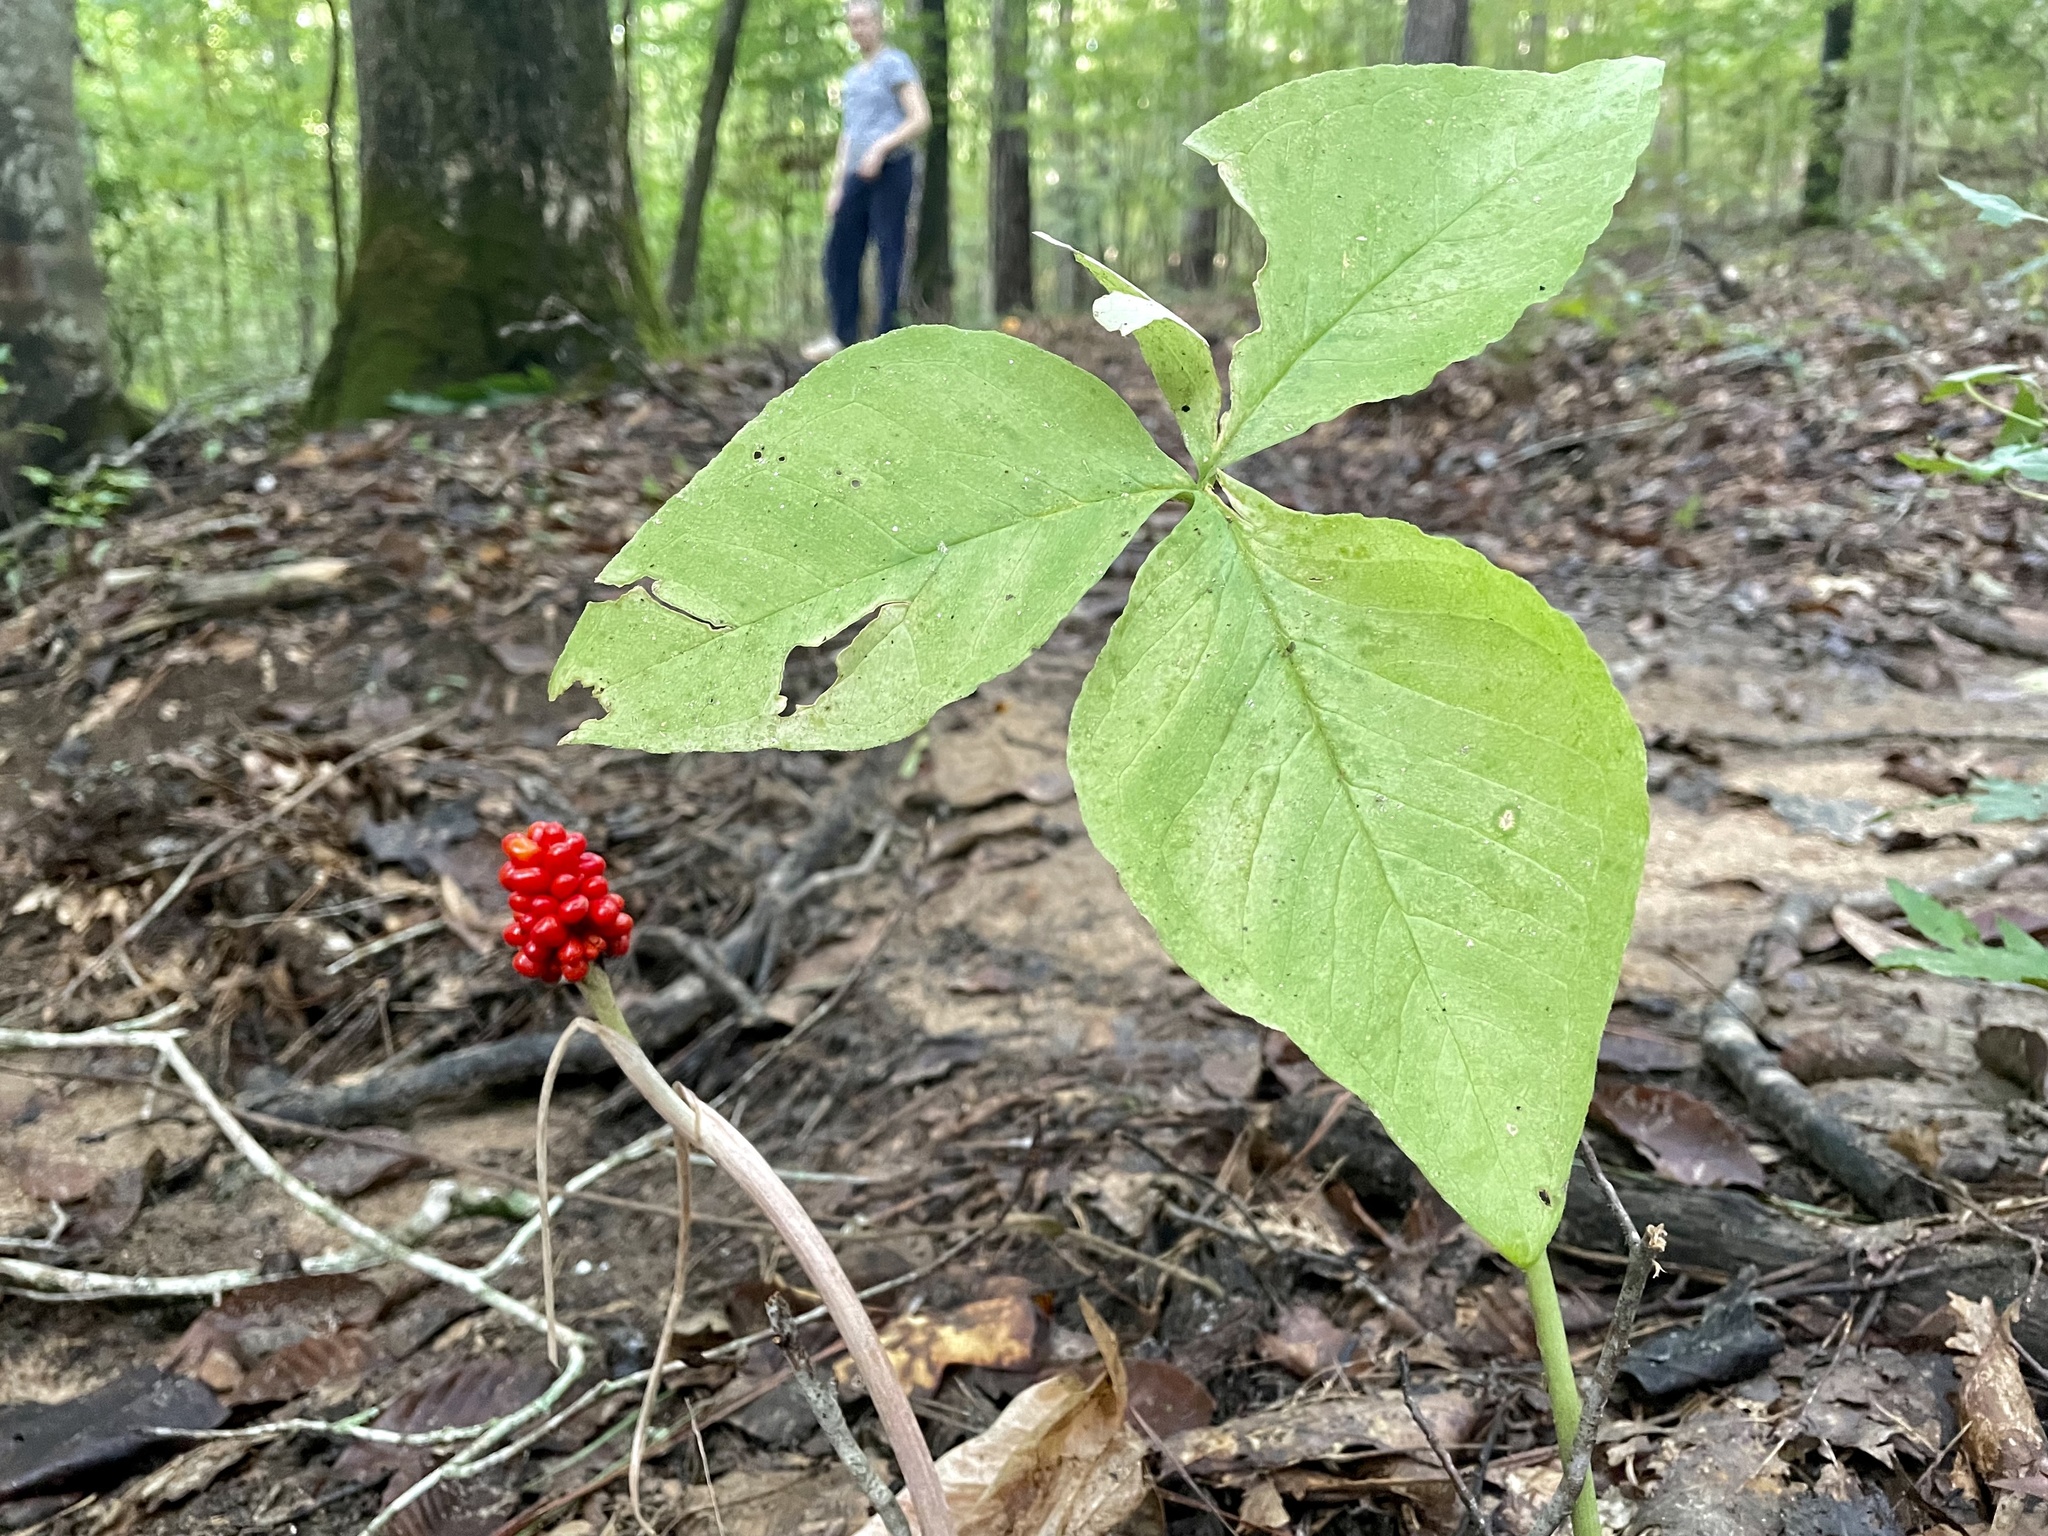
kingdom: Plantae
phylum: Tracheophyta
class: Liliopsida
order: Alismatales
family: Araceae
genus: Arisaema
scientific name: Arisaema triphyllum
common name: Jack-in-the-pulpit
